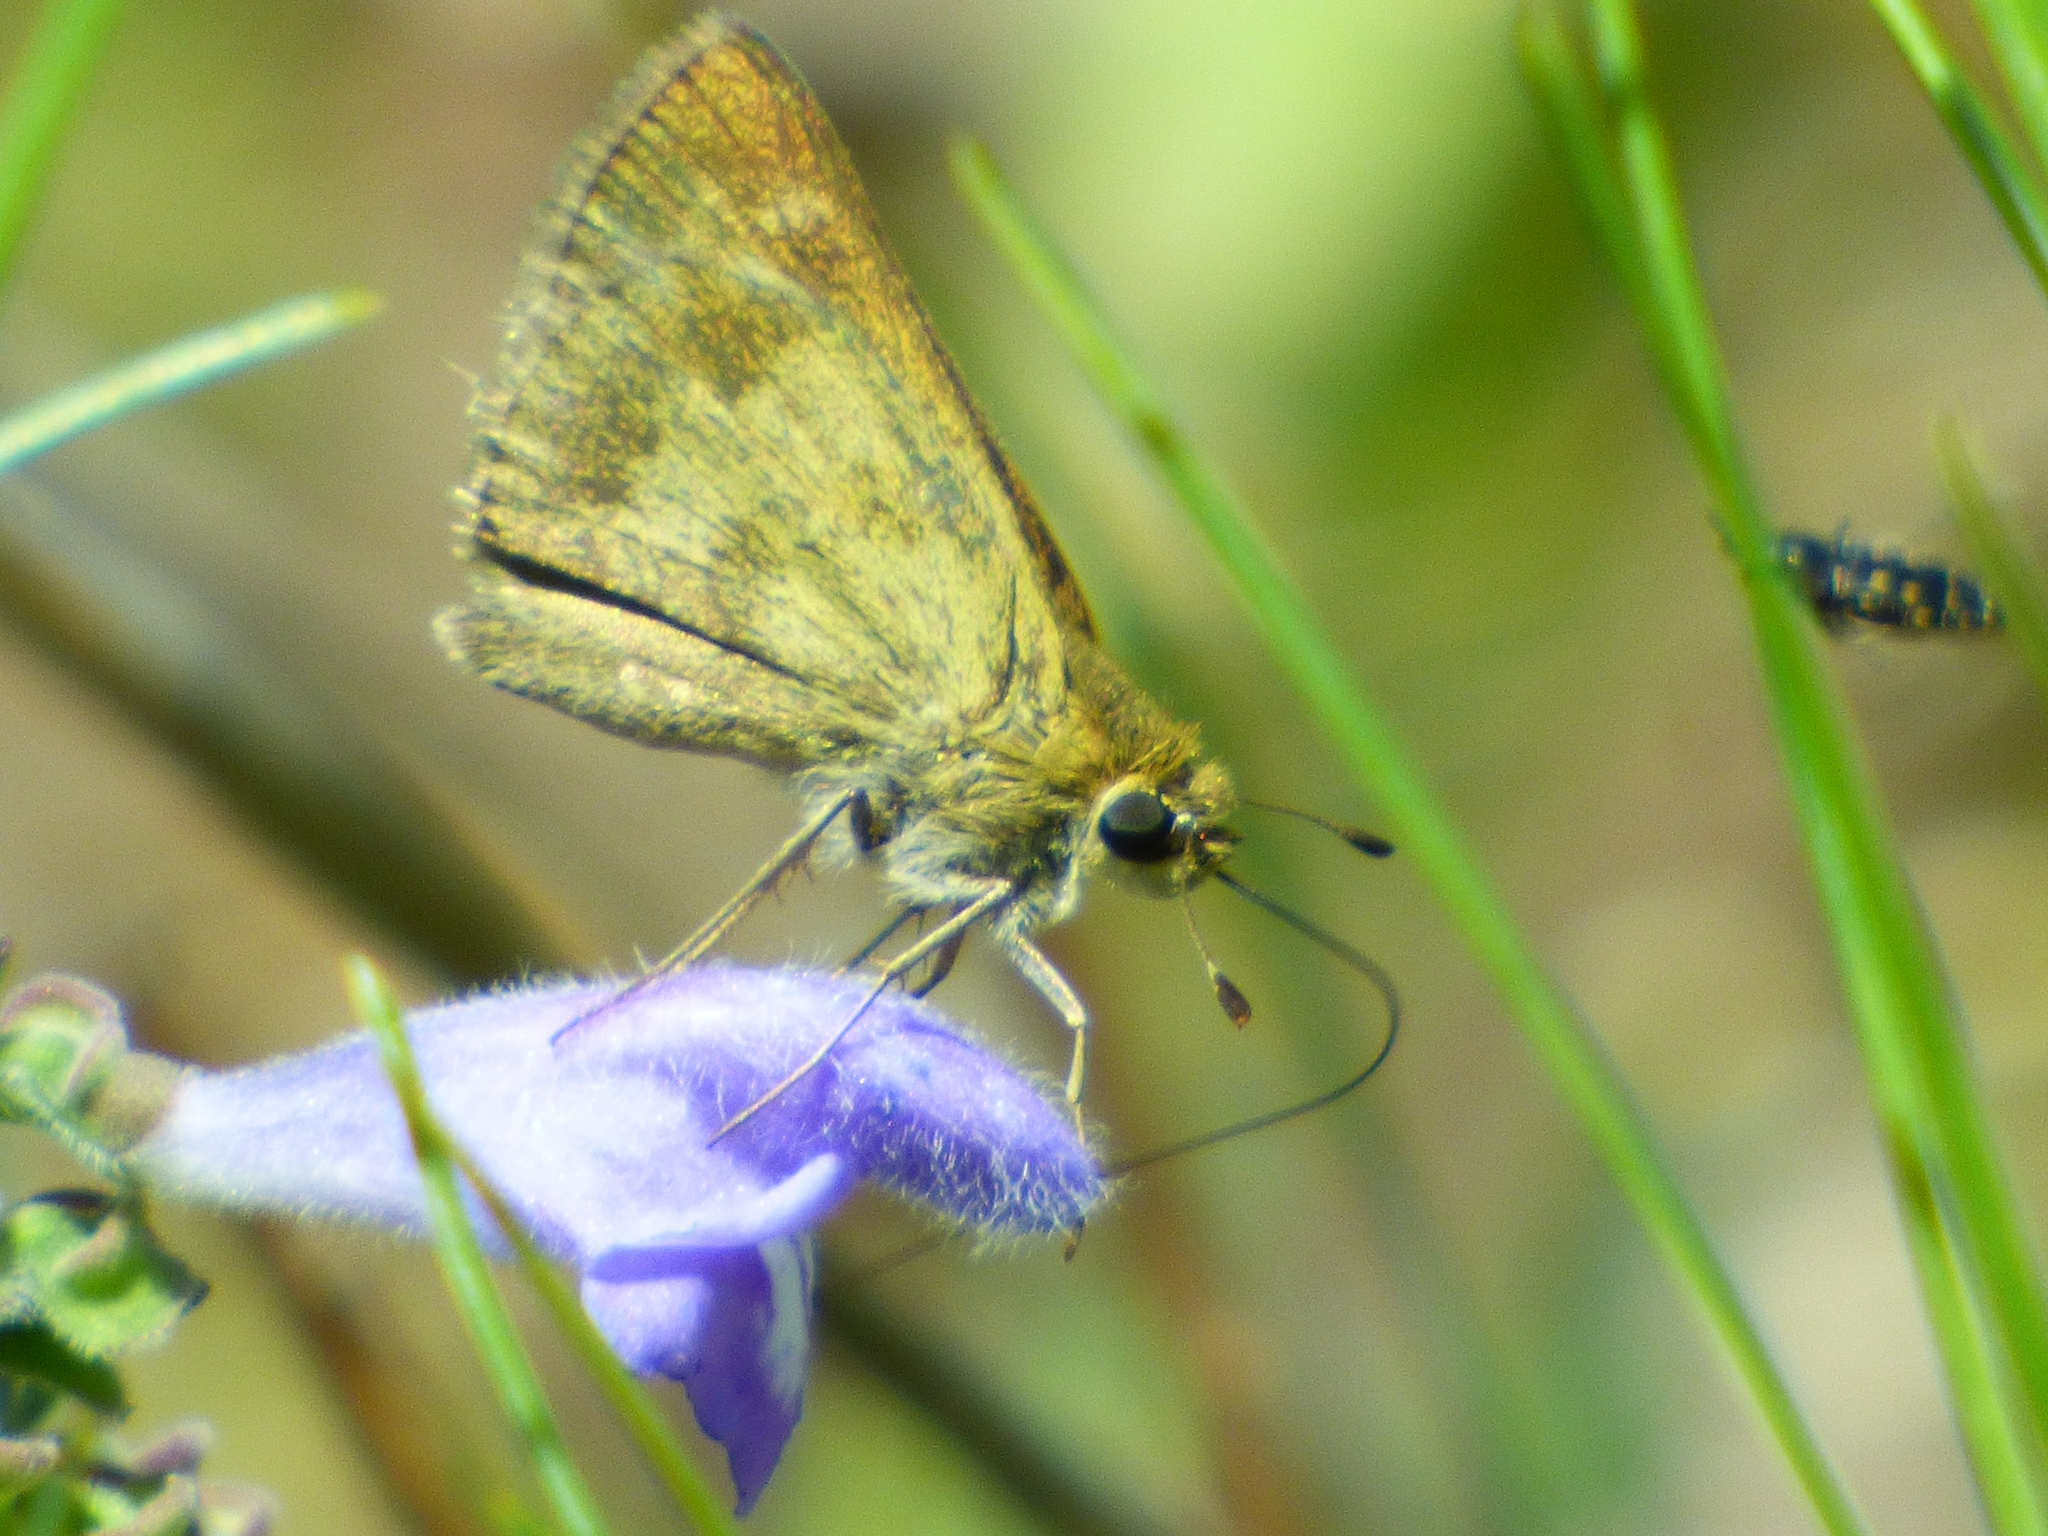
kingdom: Animalia
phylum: Arthropoda
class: Insecta
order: Lepidoptera
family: Hesperiidae
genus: Polites
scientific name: Polites vibex
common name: Whirlabout
